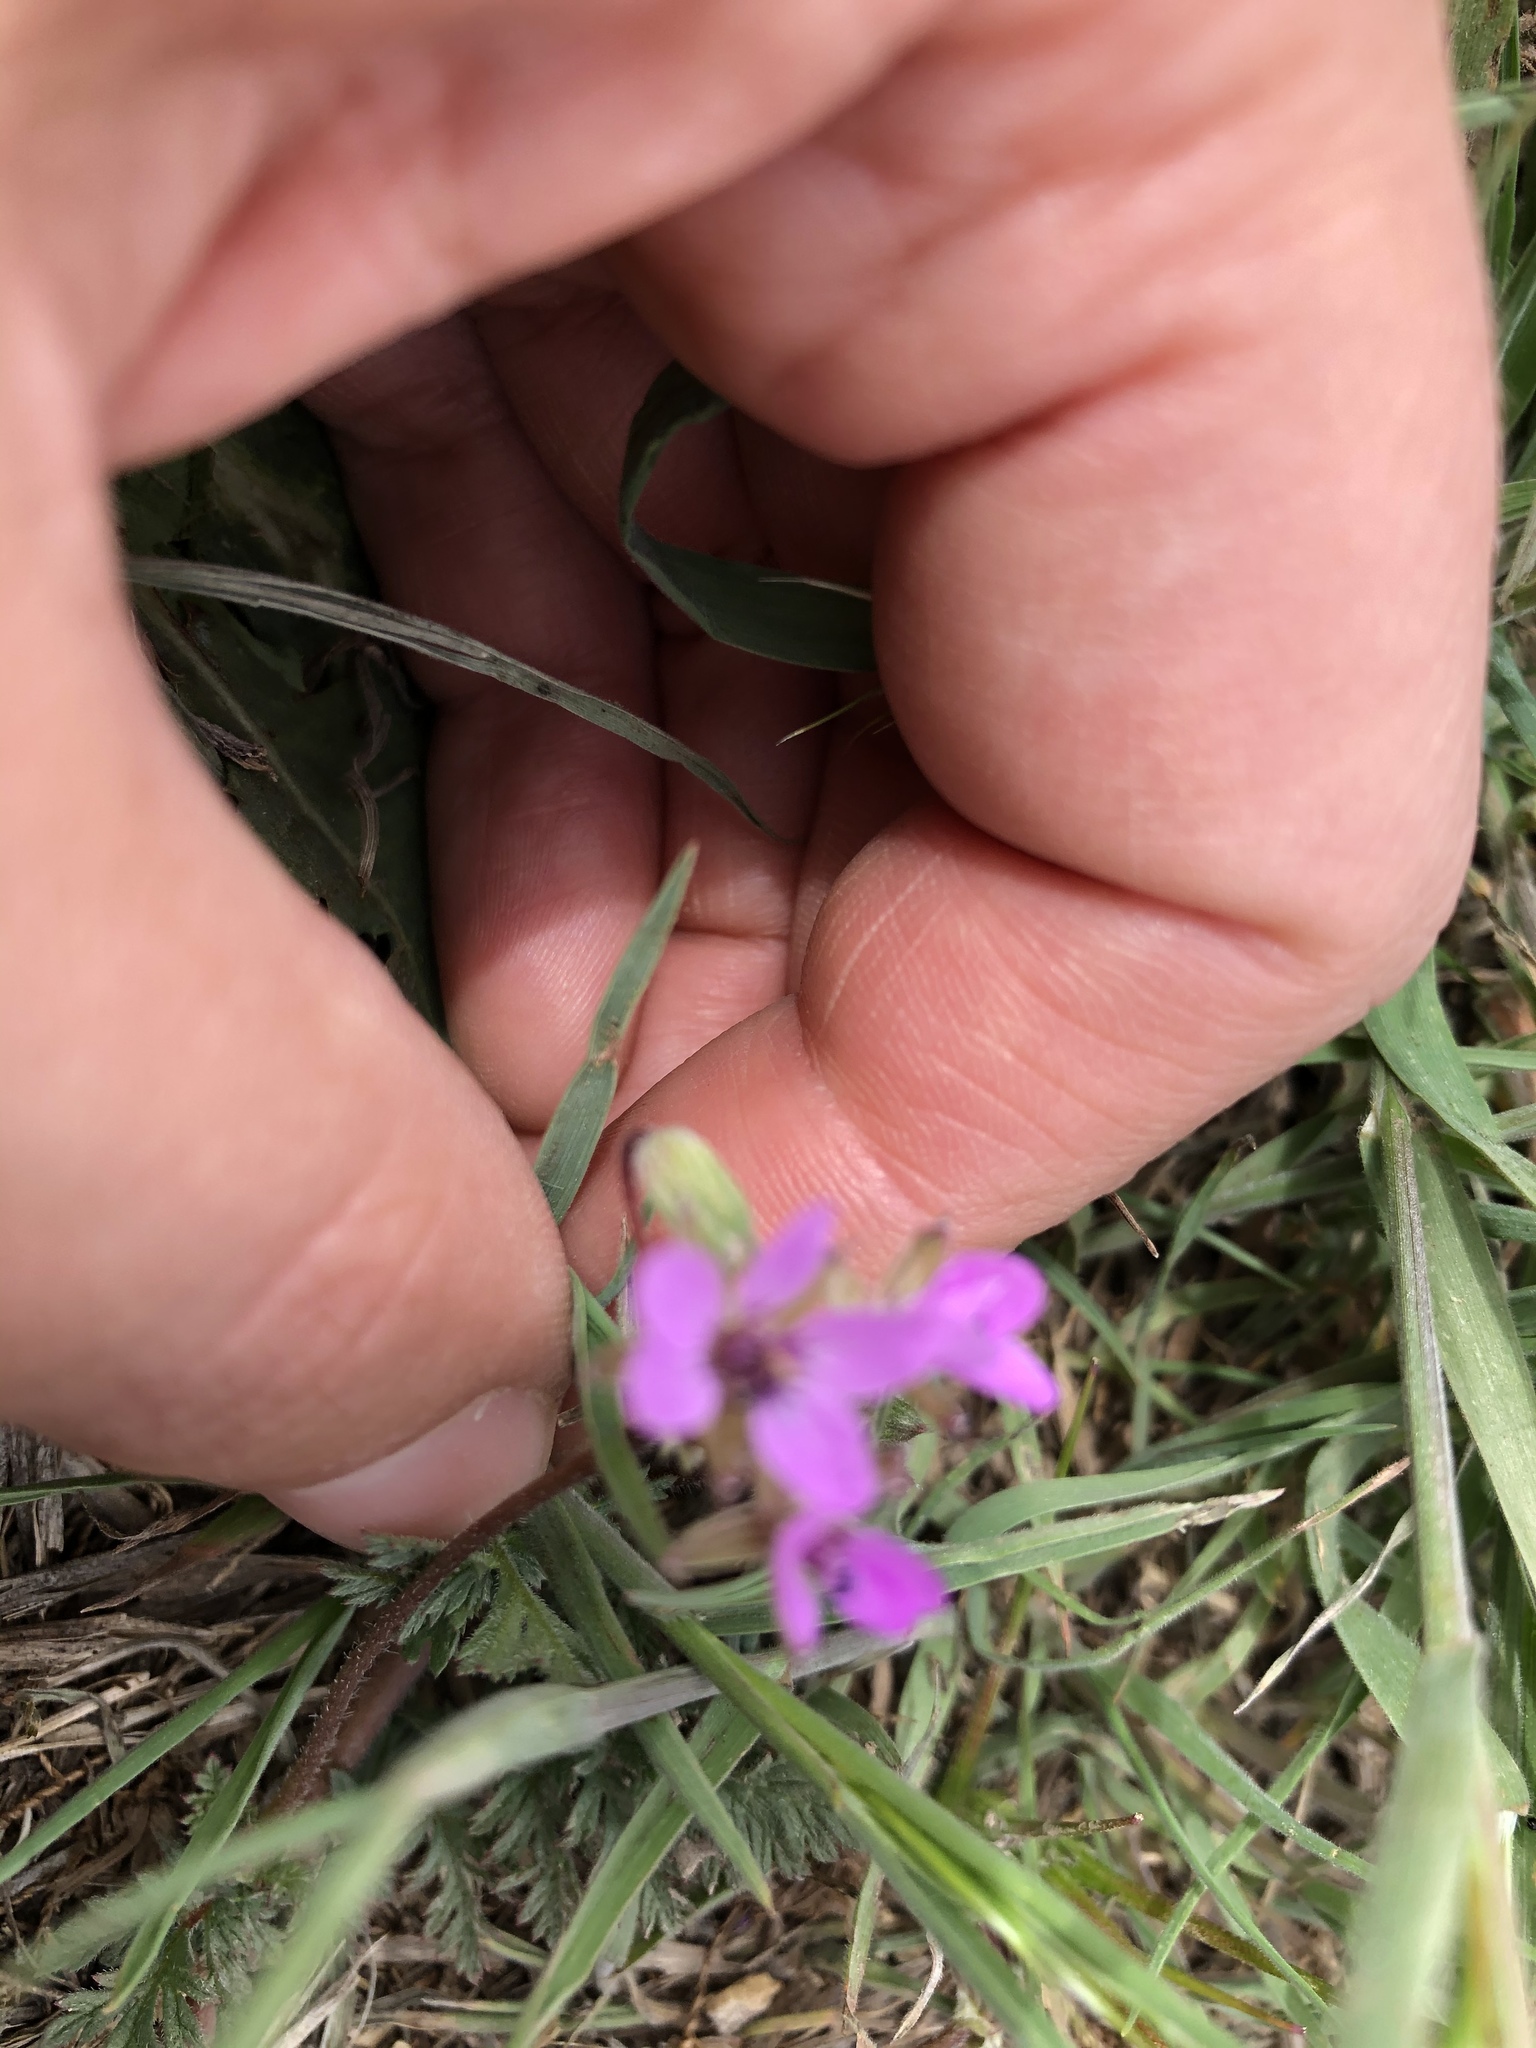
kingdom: Plantae
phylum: Tracheophyta
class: Magnoliopsida
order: Geraniales
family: Geraniaceae
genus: Erodium
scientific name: Erodium cicutarium
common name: Common stork's-bill
